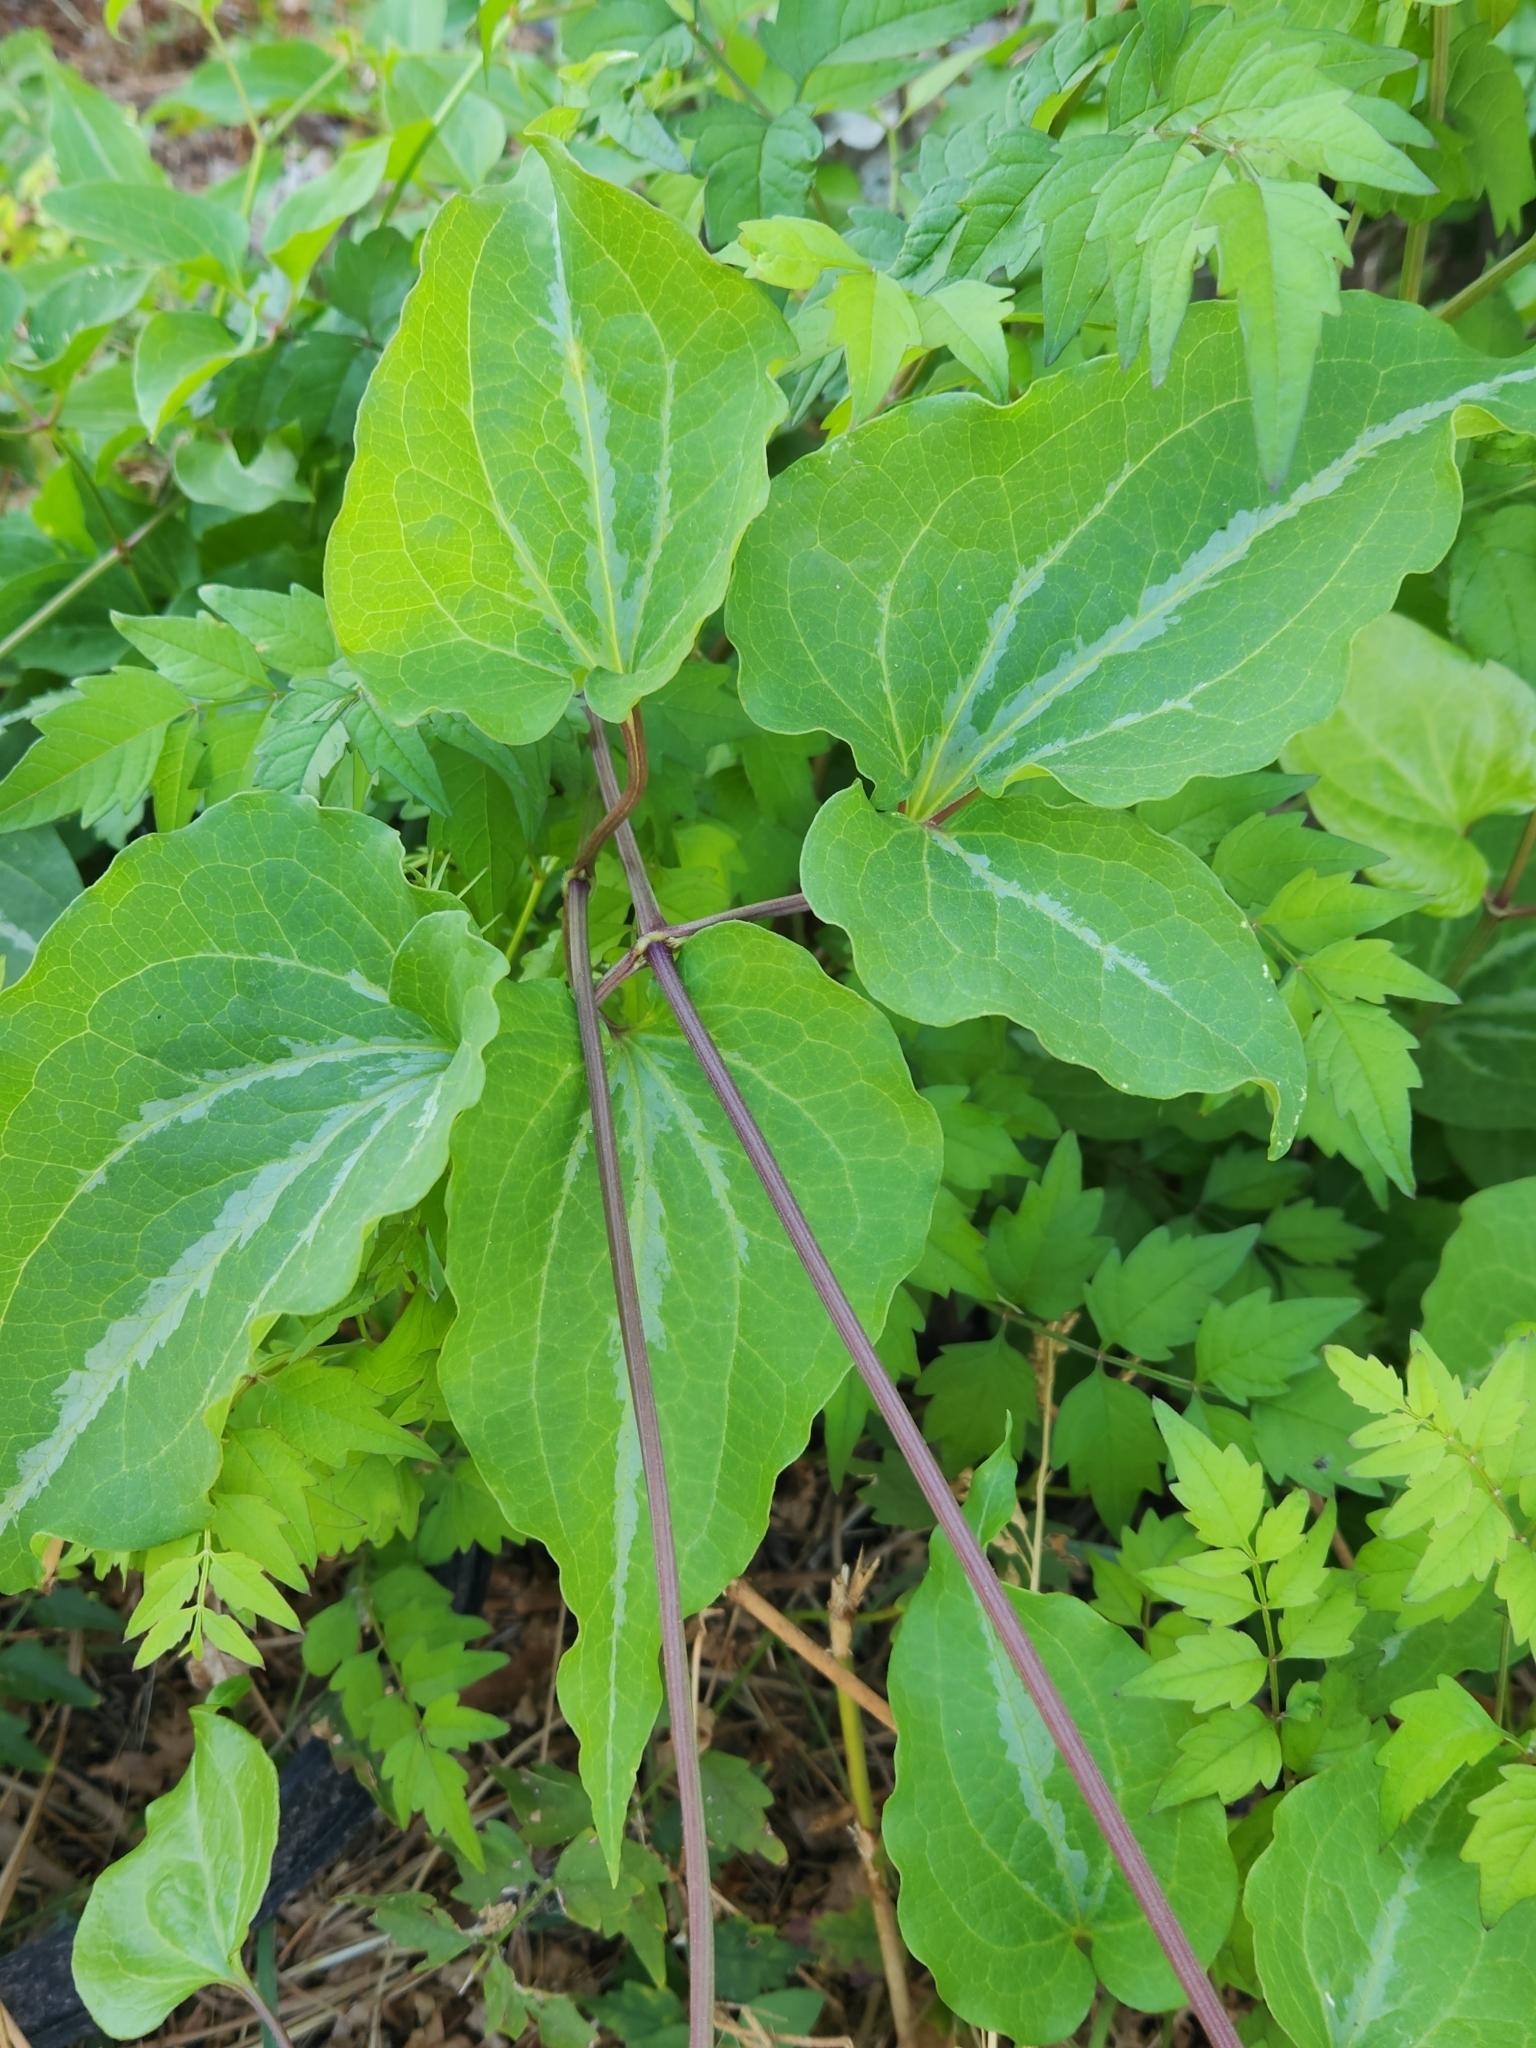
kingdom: Plantae
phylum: Tracheophyta
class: Magnoliopsida
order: Ranunculales
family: Ranunculaceae
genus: Clematis
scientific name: Clematis terniflora
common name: Sweet autumn clematis
